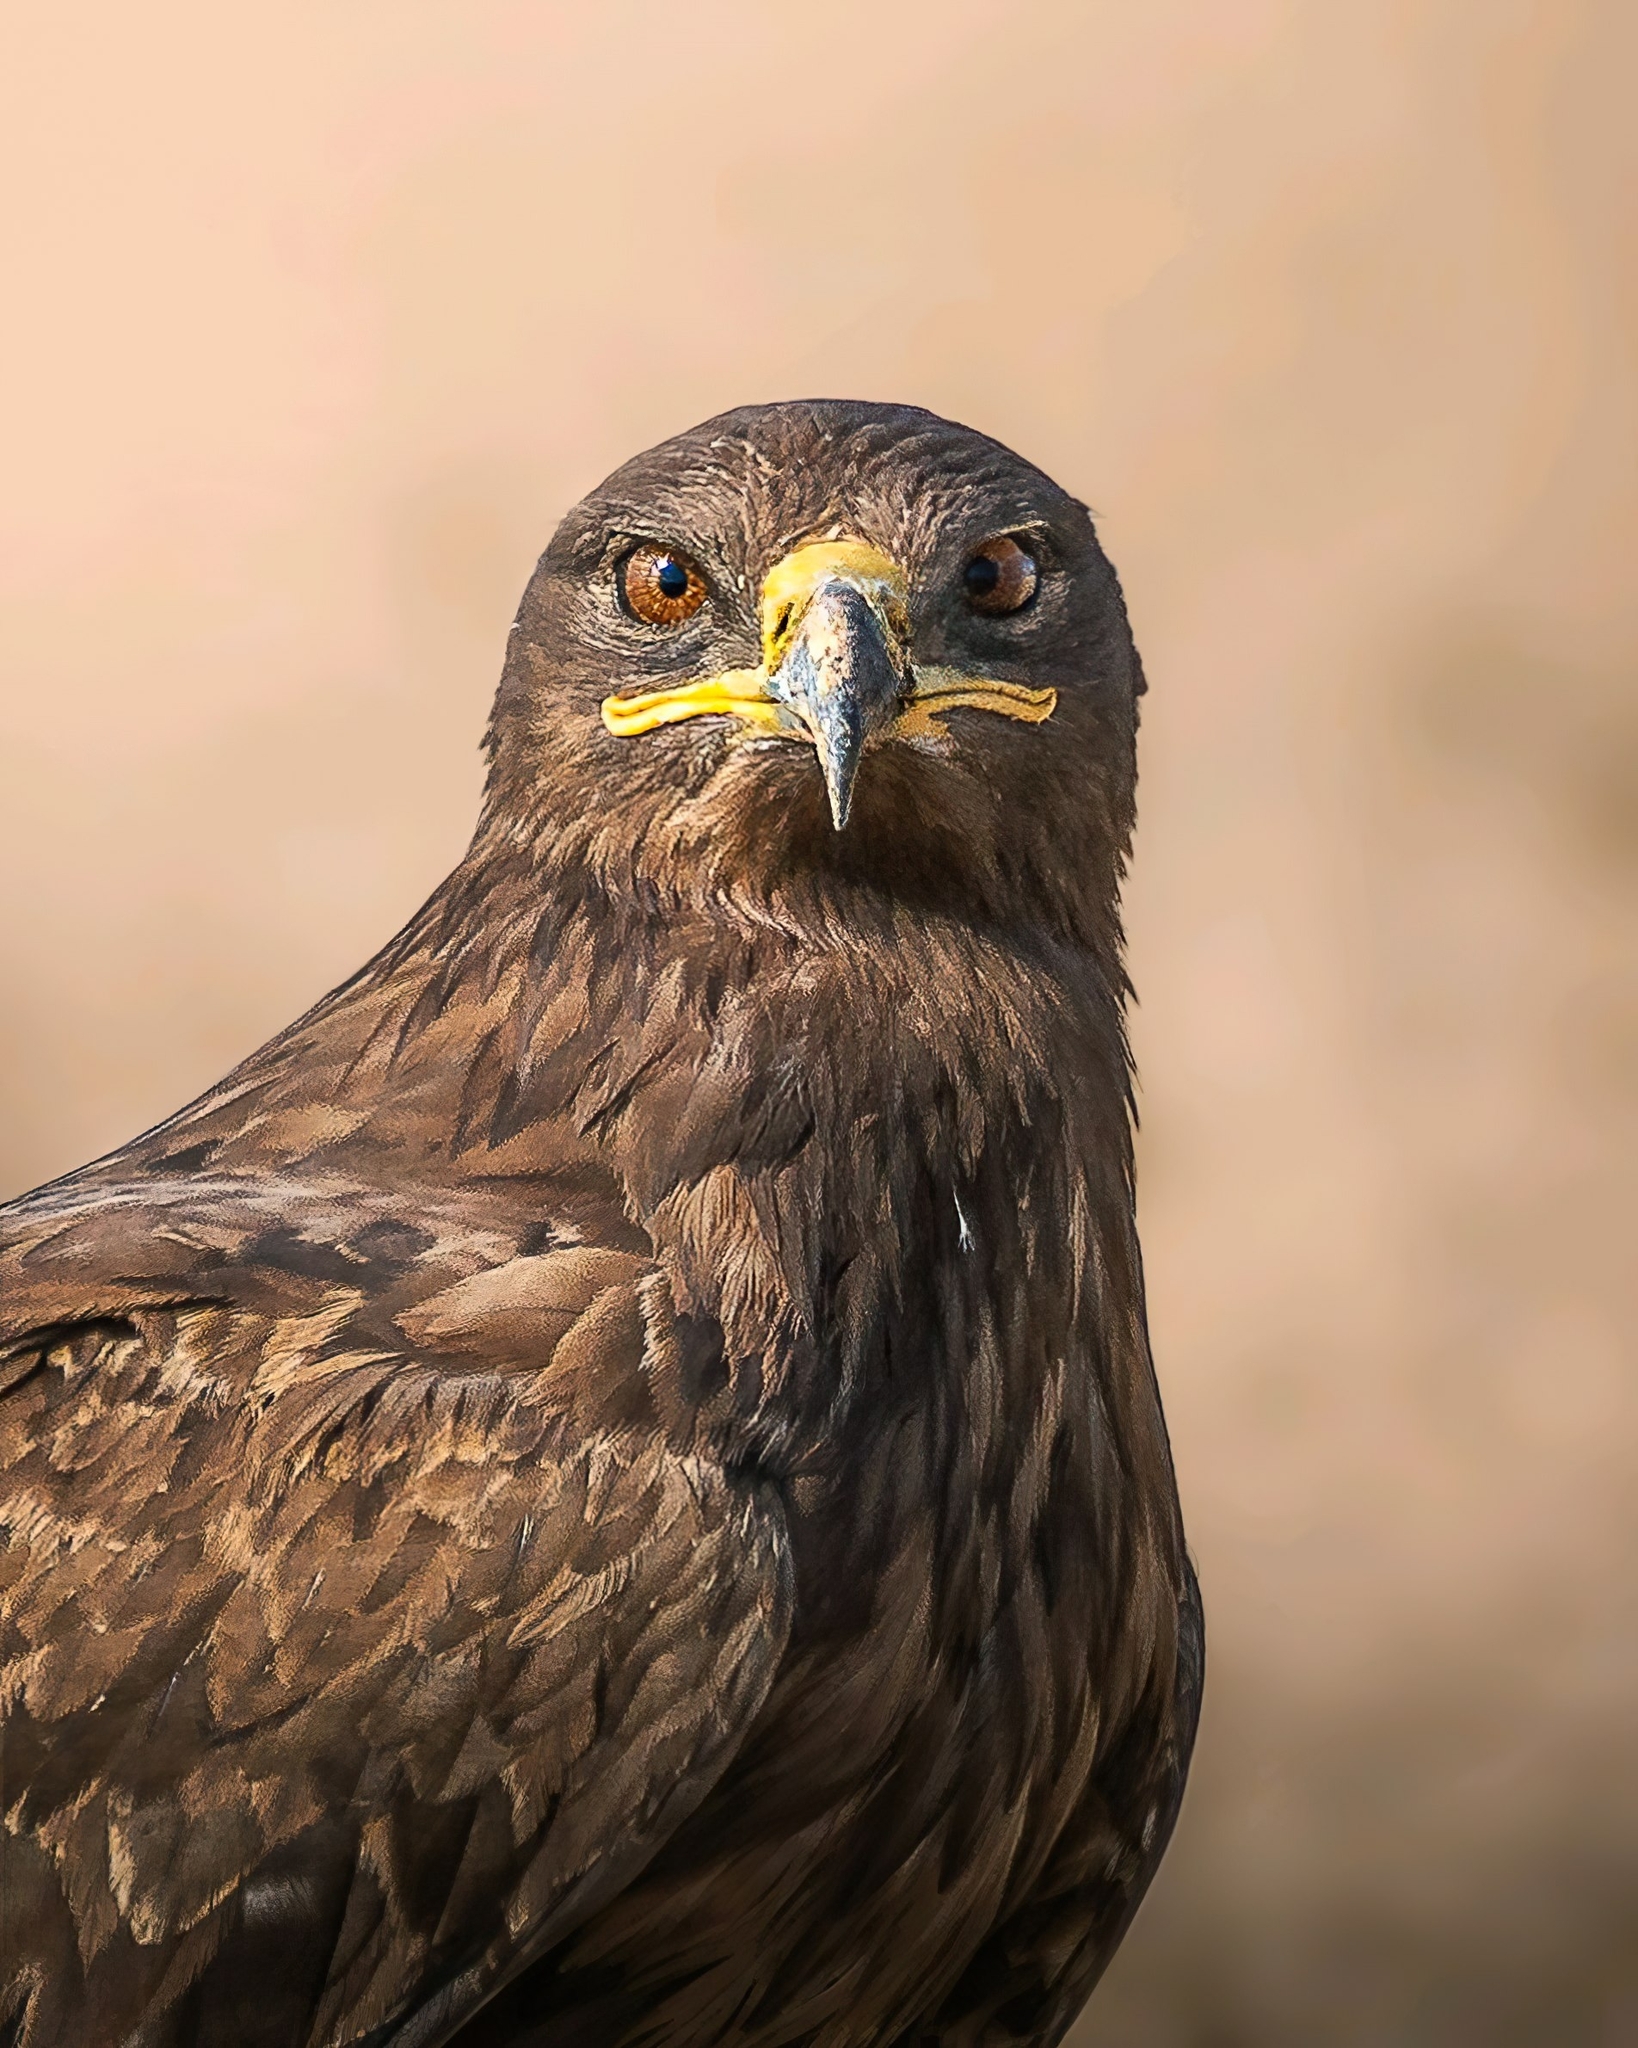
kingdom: Animalia
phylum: Chordata
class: Aves
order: Accipitriformes
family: Accipitridae
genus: Aquila
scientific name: Aquila nipalensis
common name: Steppe eagle
